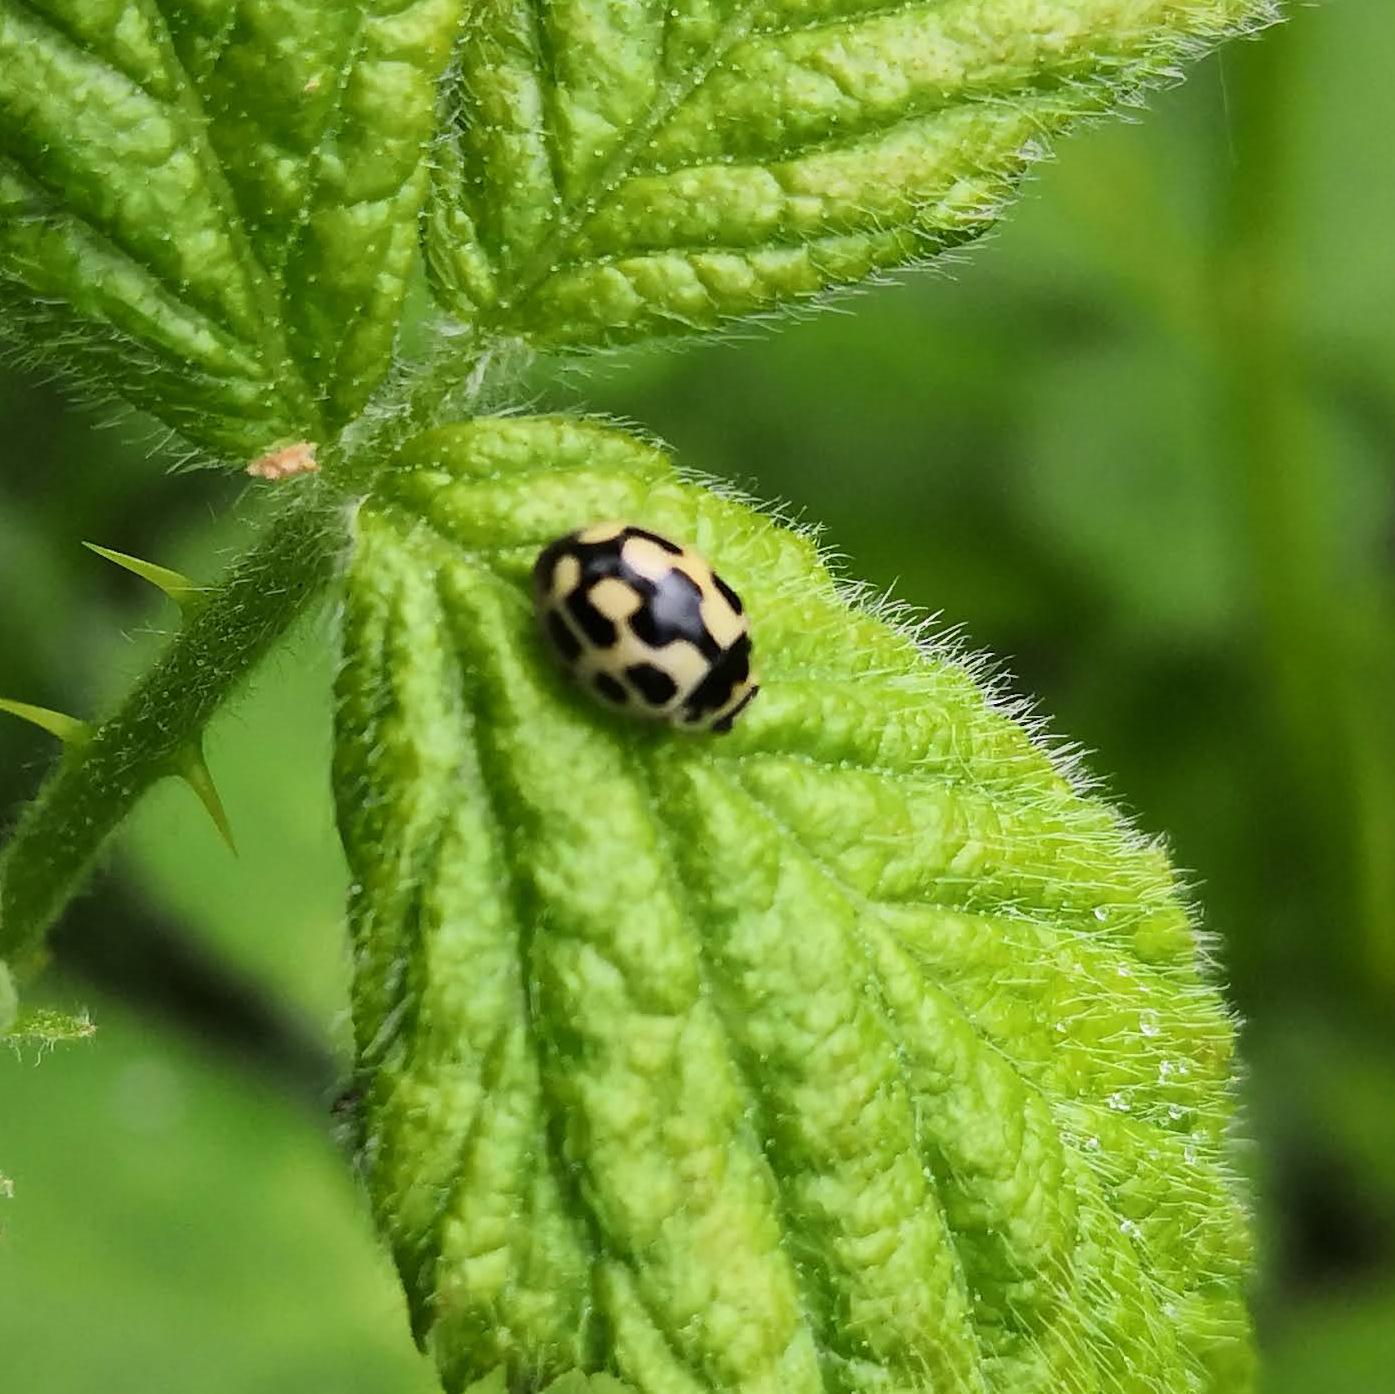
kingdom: Animalia
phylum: Arthropoda
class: Insecta
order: Coleoptera
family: Coccinellidae
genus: Propylaea
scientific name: Propylaea quatuordecimpunctata
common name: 14-spotted ladybird beetle
